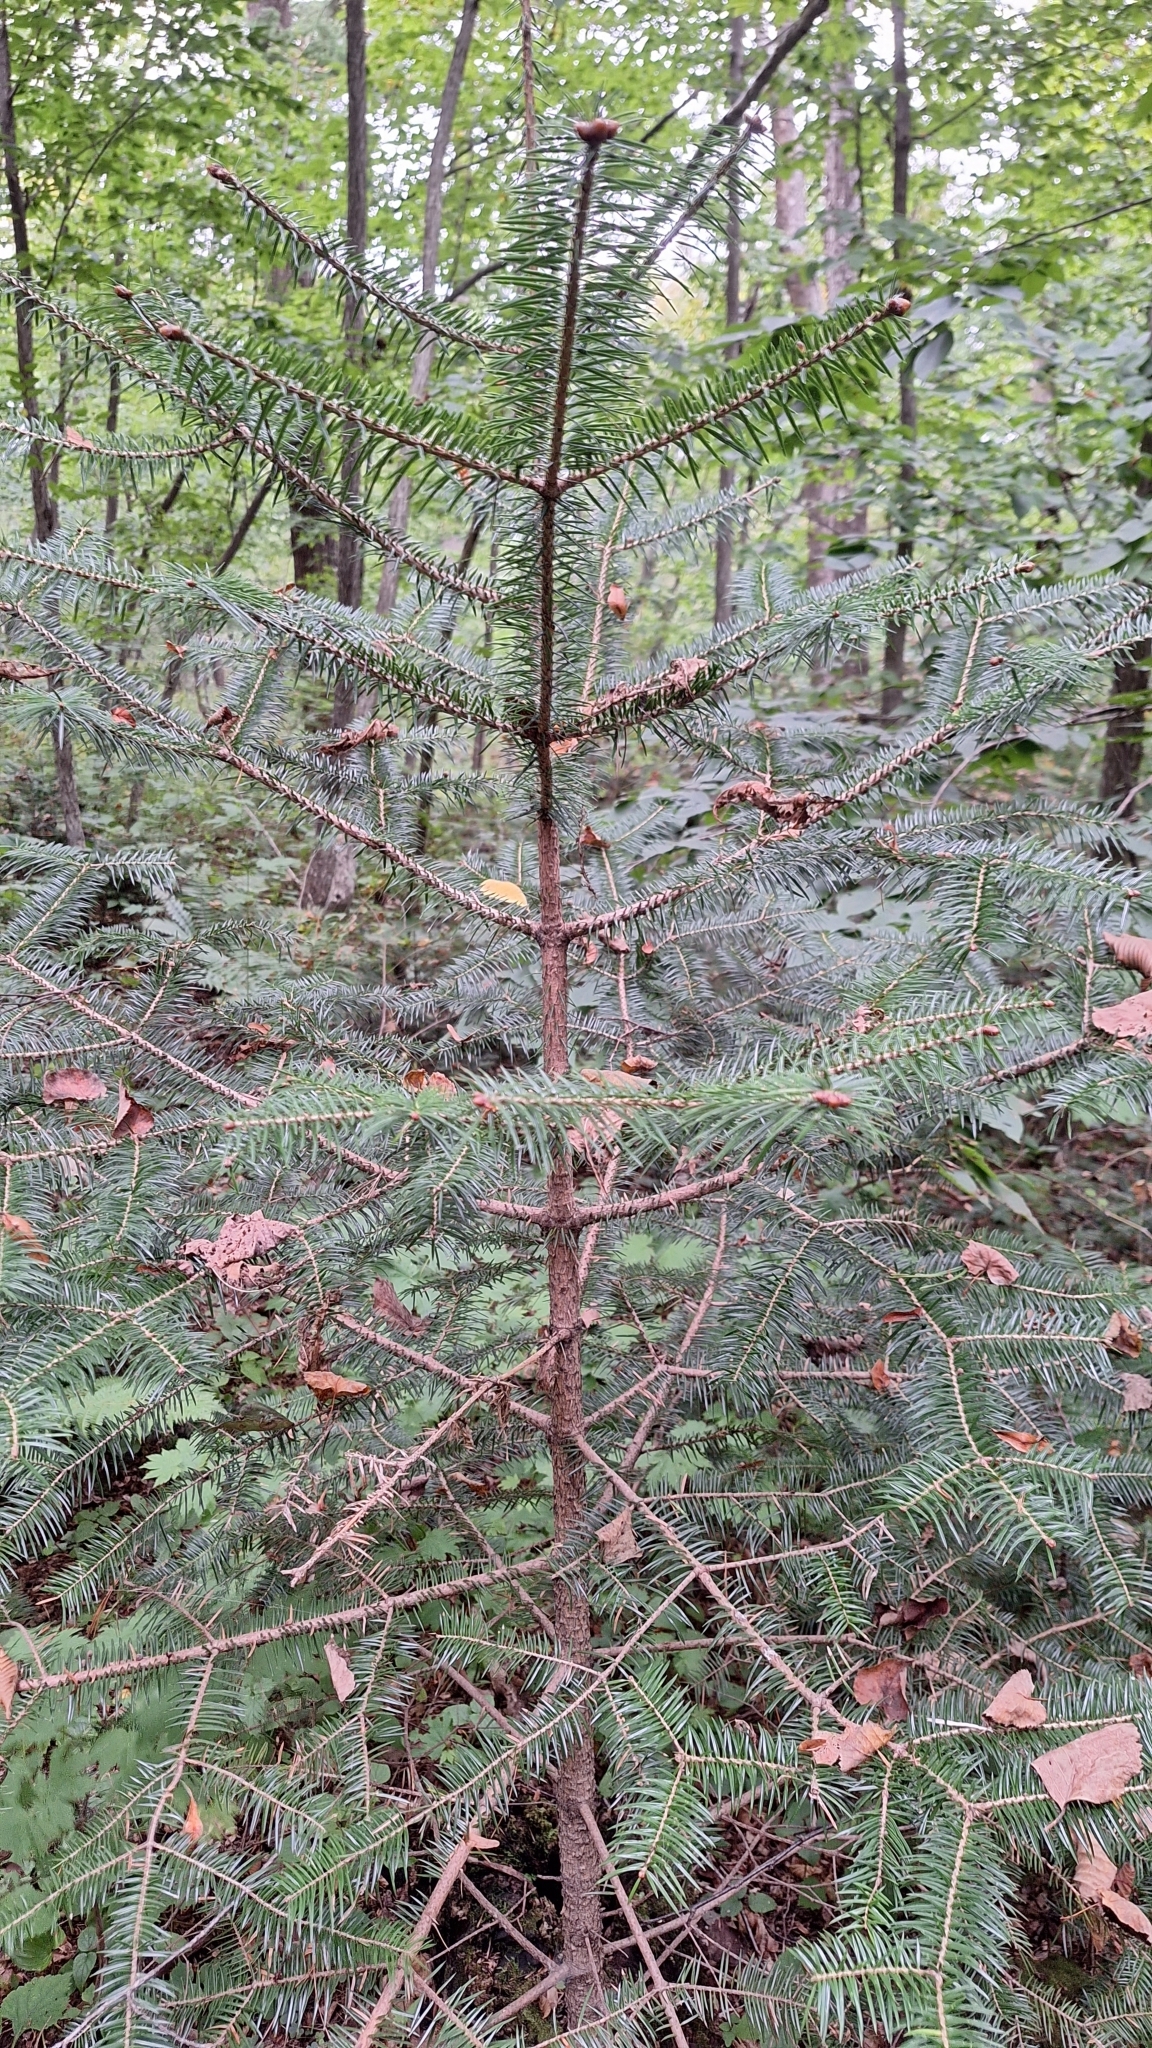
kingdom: Plantae
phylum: Tracheophyta
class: Pinopsida
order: Pinales
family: Pinaceae
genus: Abies
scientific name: Abies holophylla
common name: Manchurian fir
